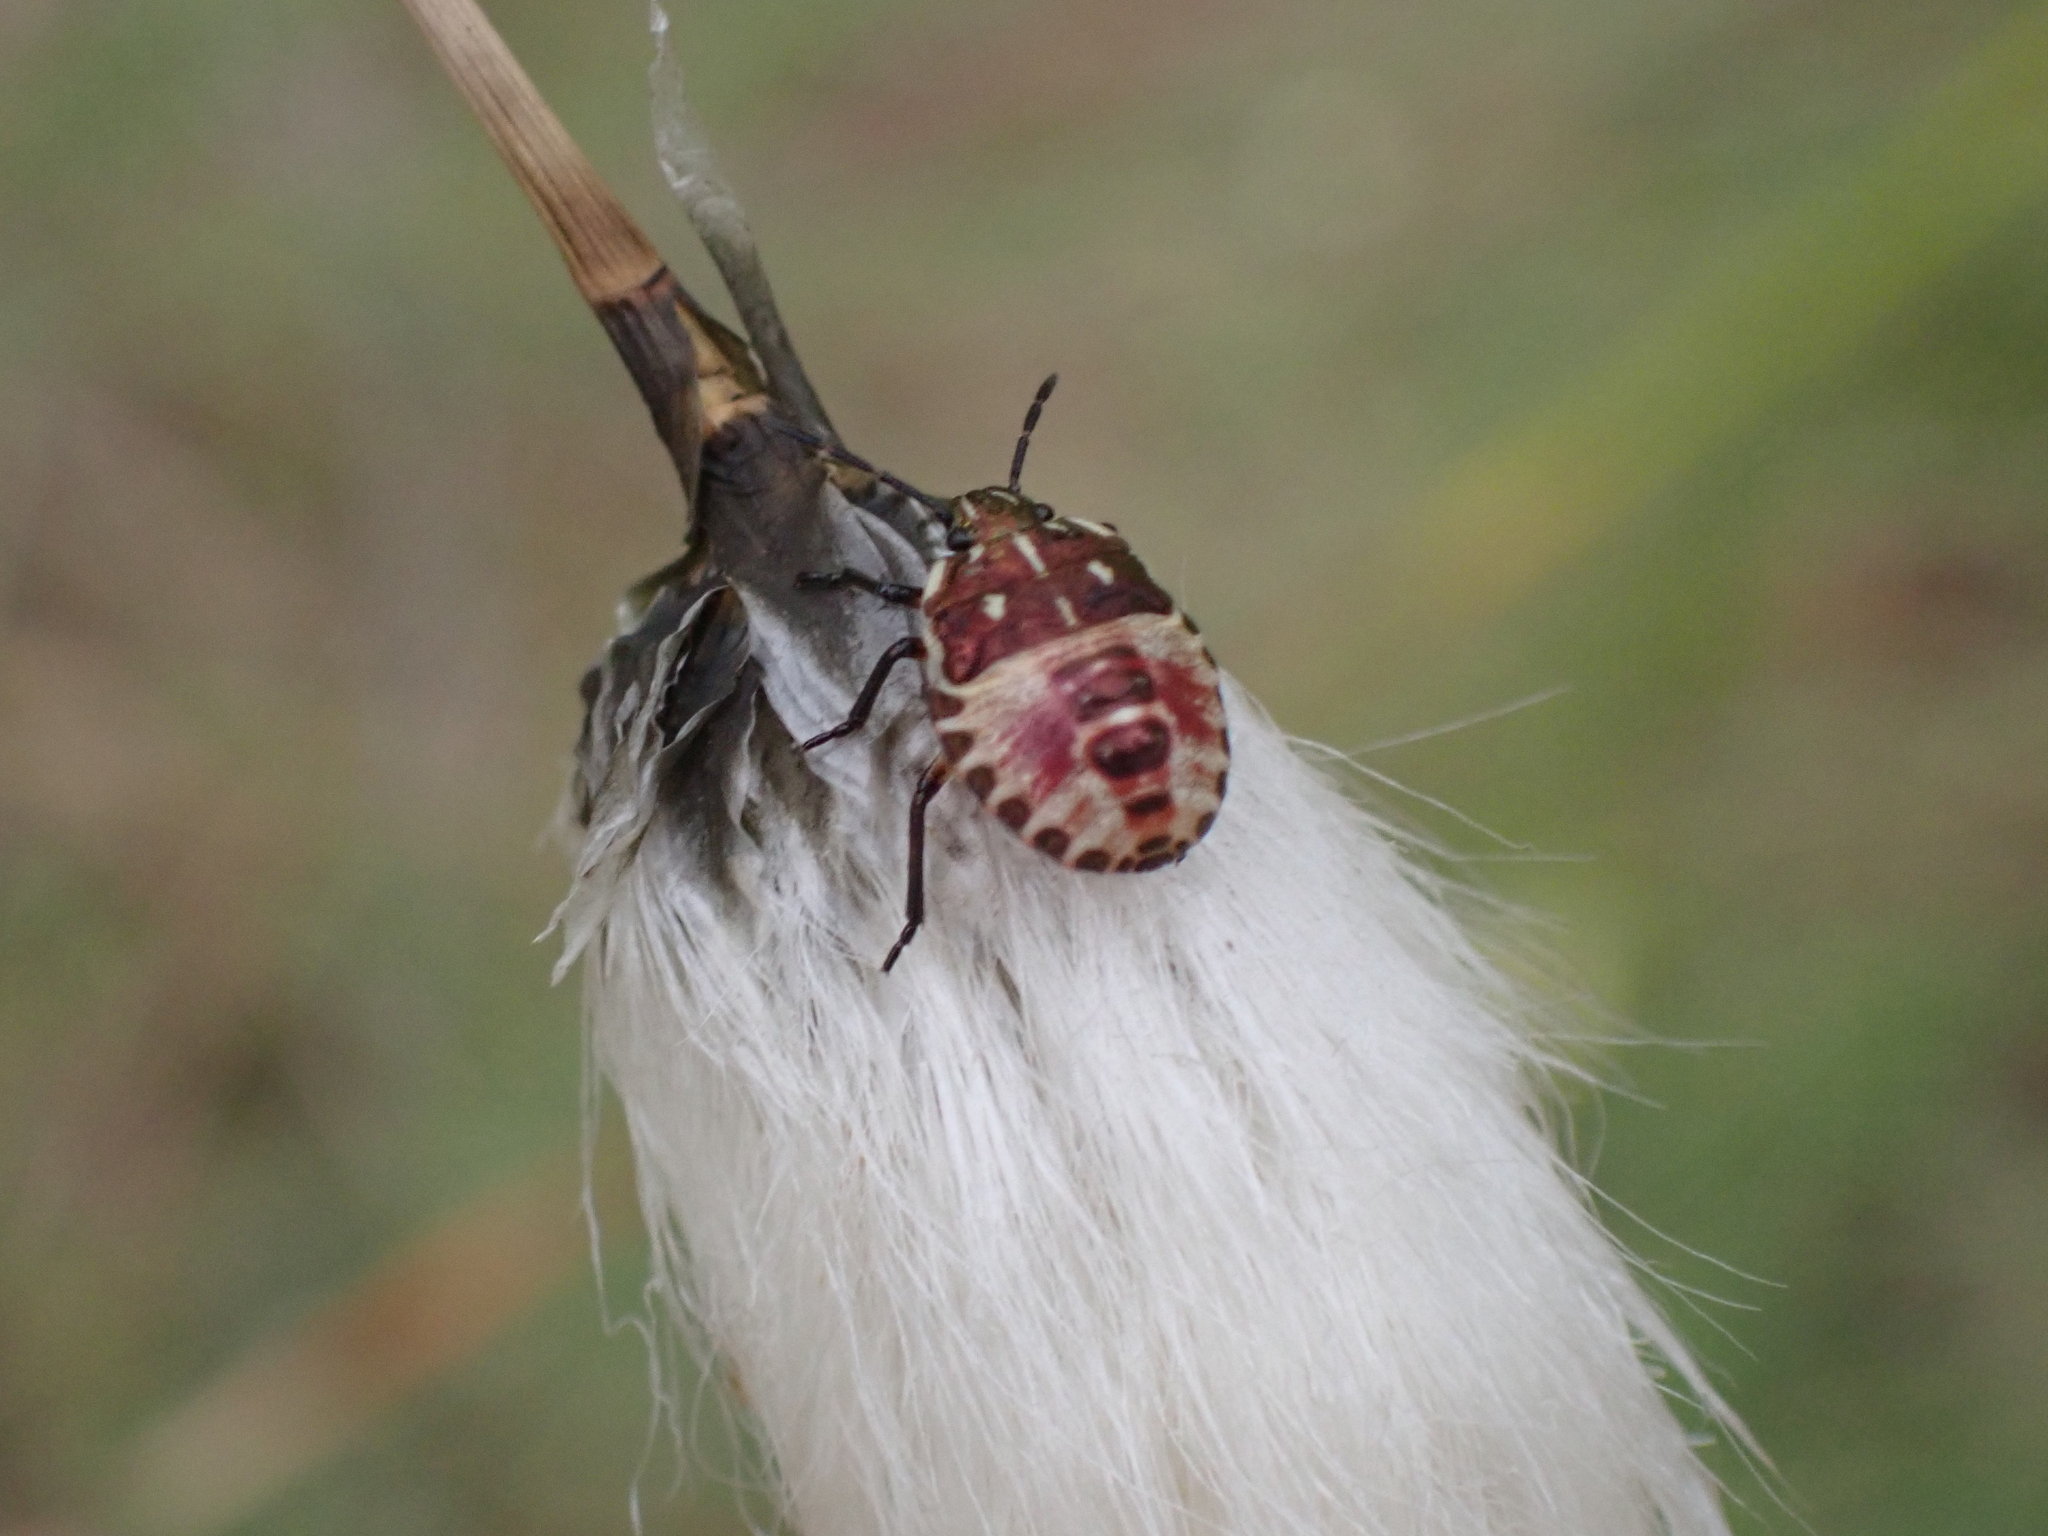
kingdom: Animalia
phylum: Arthropoda
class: Insecta
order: Hemiptera
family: Pentatomidae
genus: Carpocoris
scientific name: Carpocoris purpureipennis
